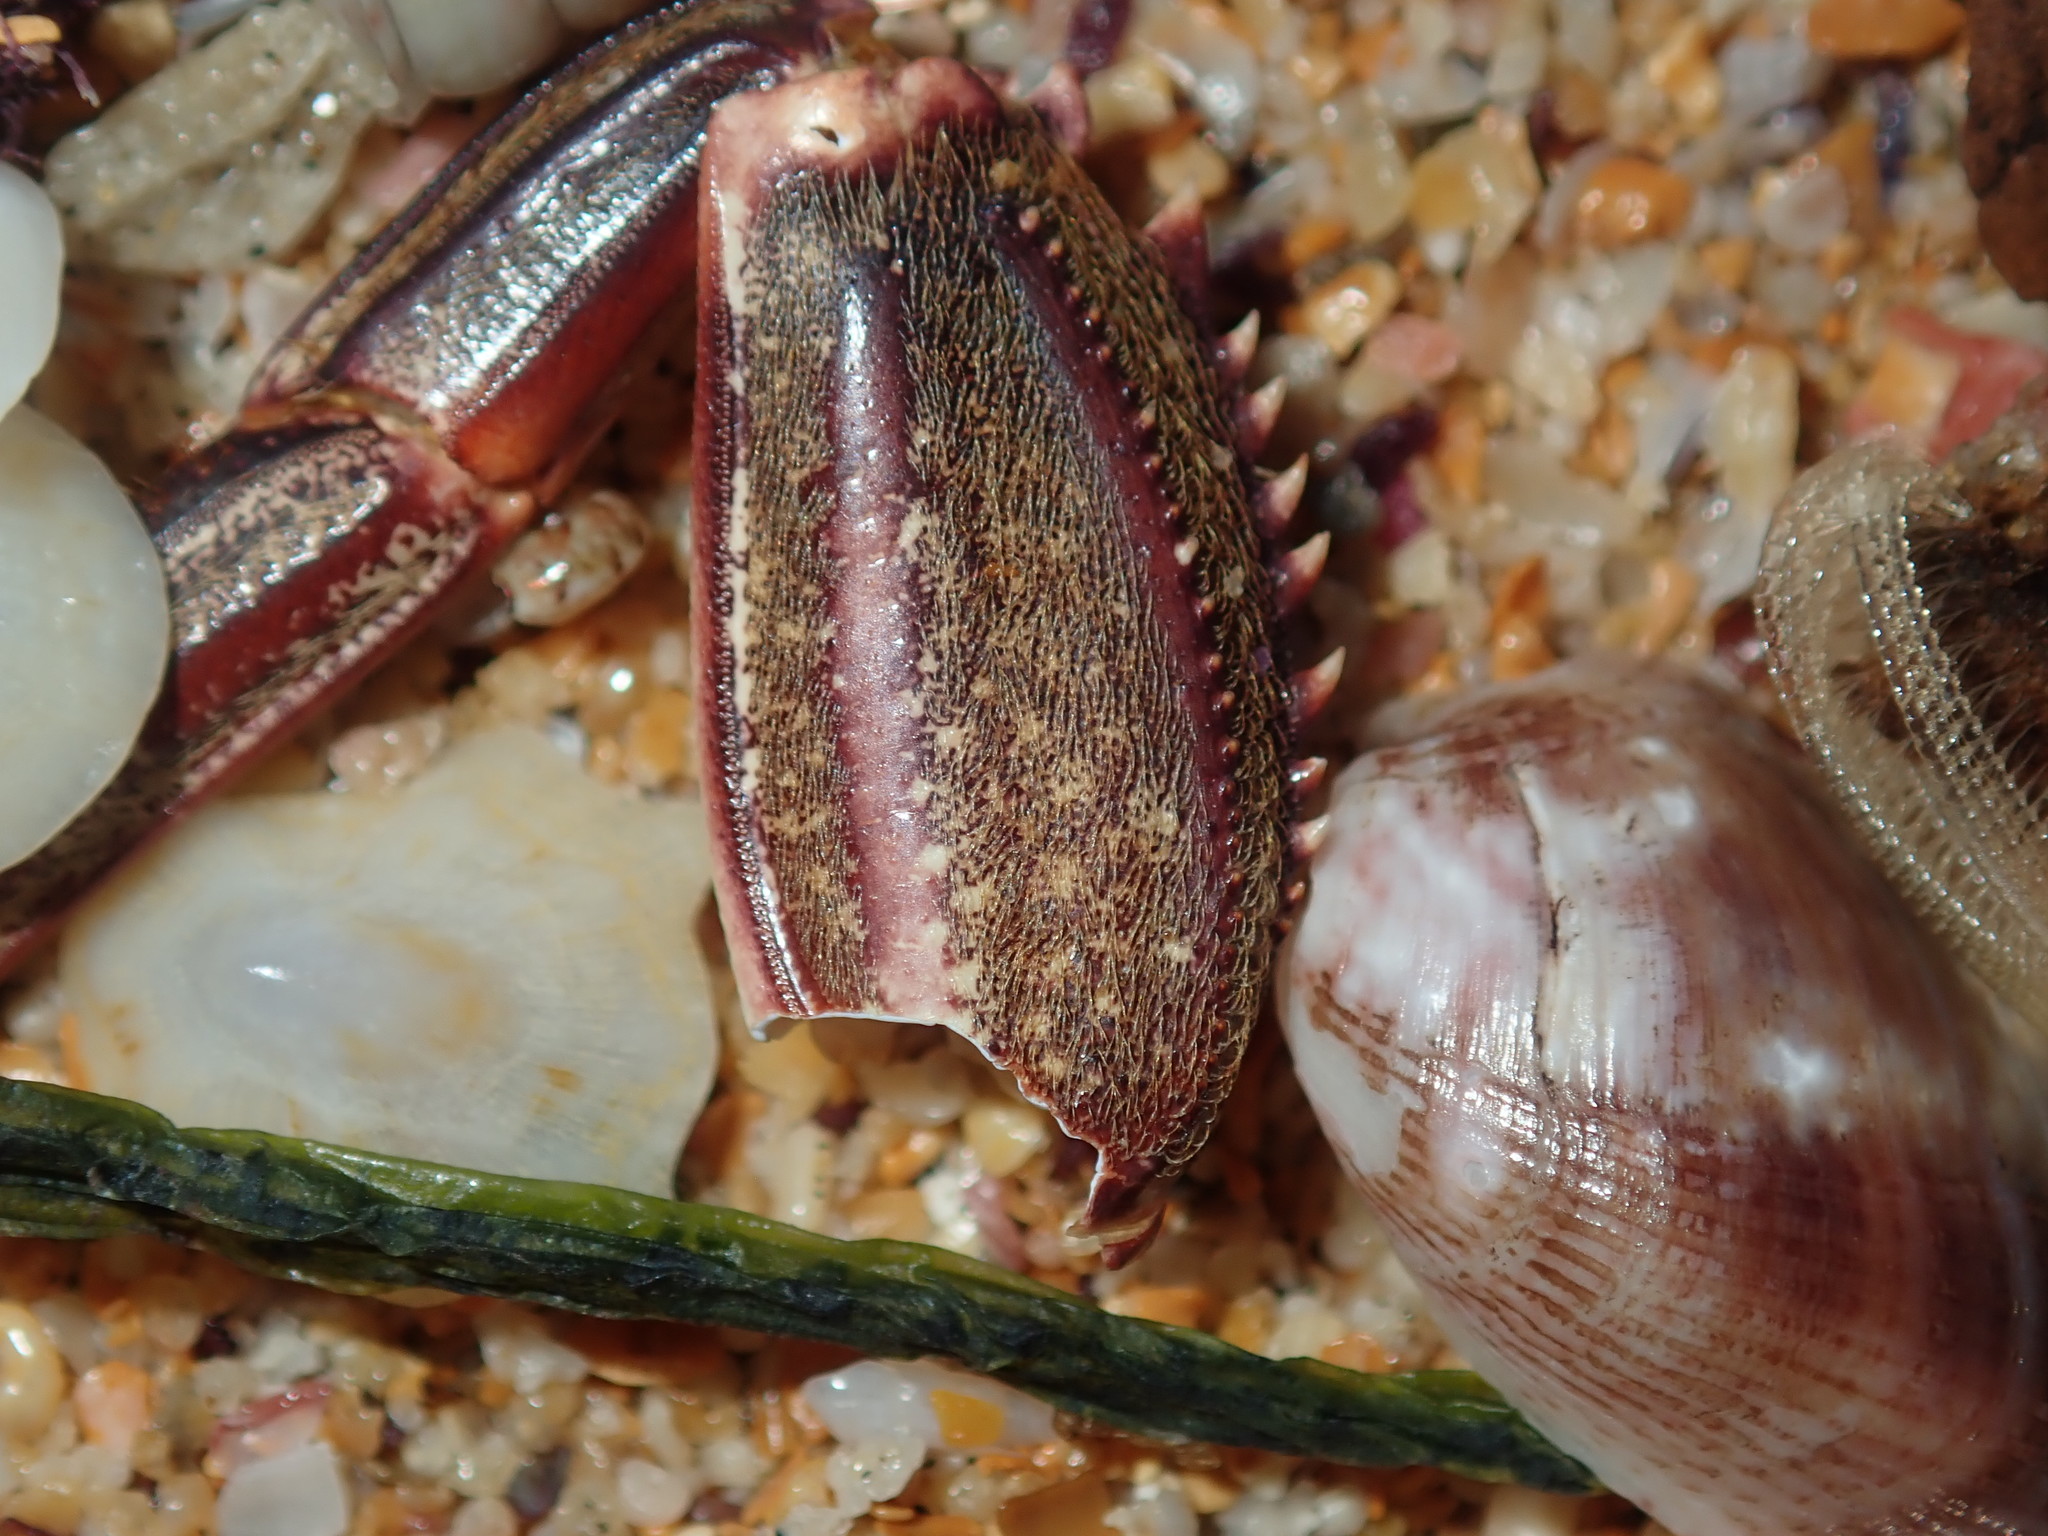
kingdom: Animalia
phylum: Arthropoda
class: Malacostraca
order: Decapoda
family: Plagusiidae
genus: Guinusia
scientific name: Guinusia chabrus
